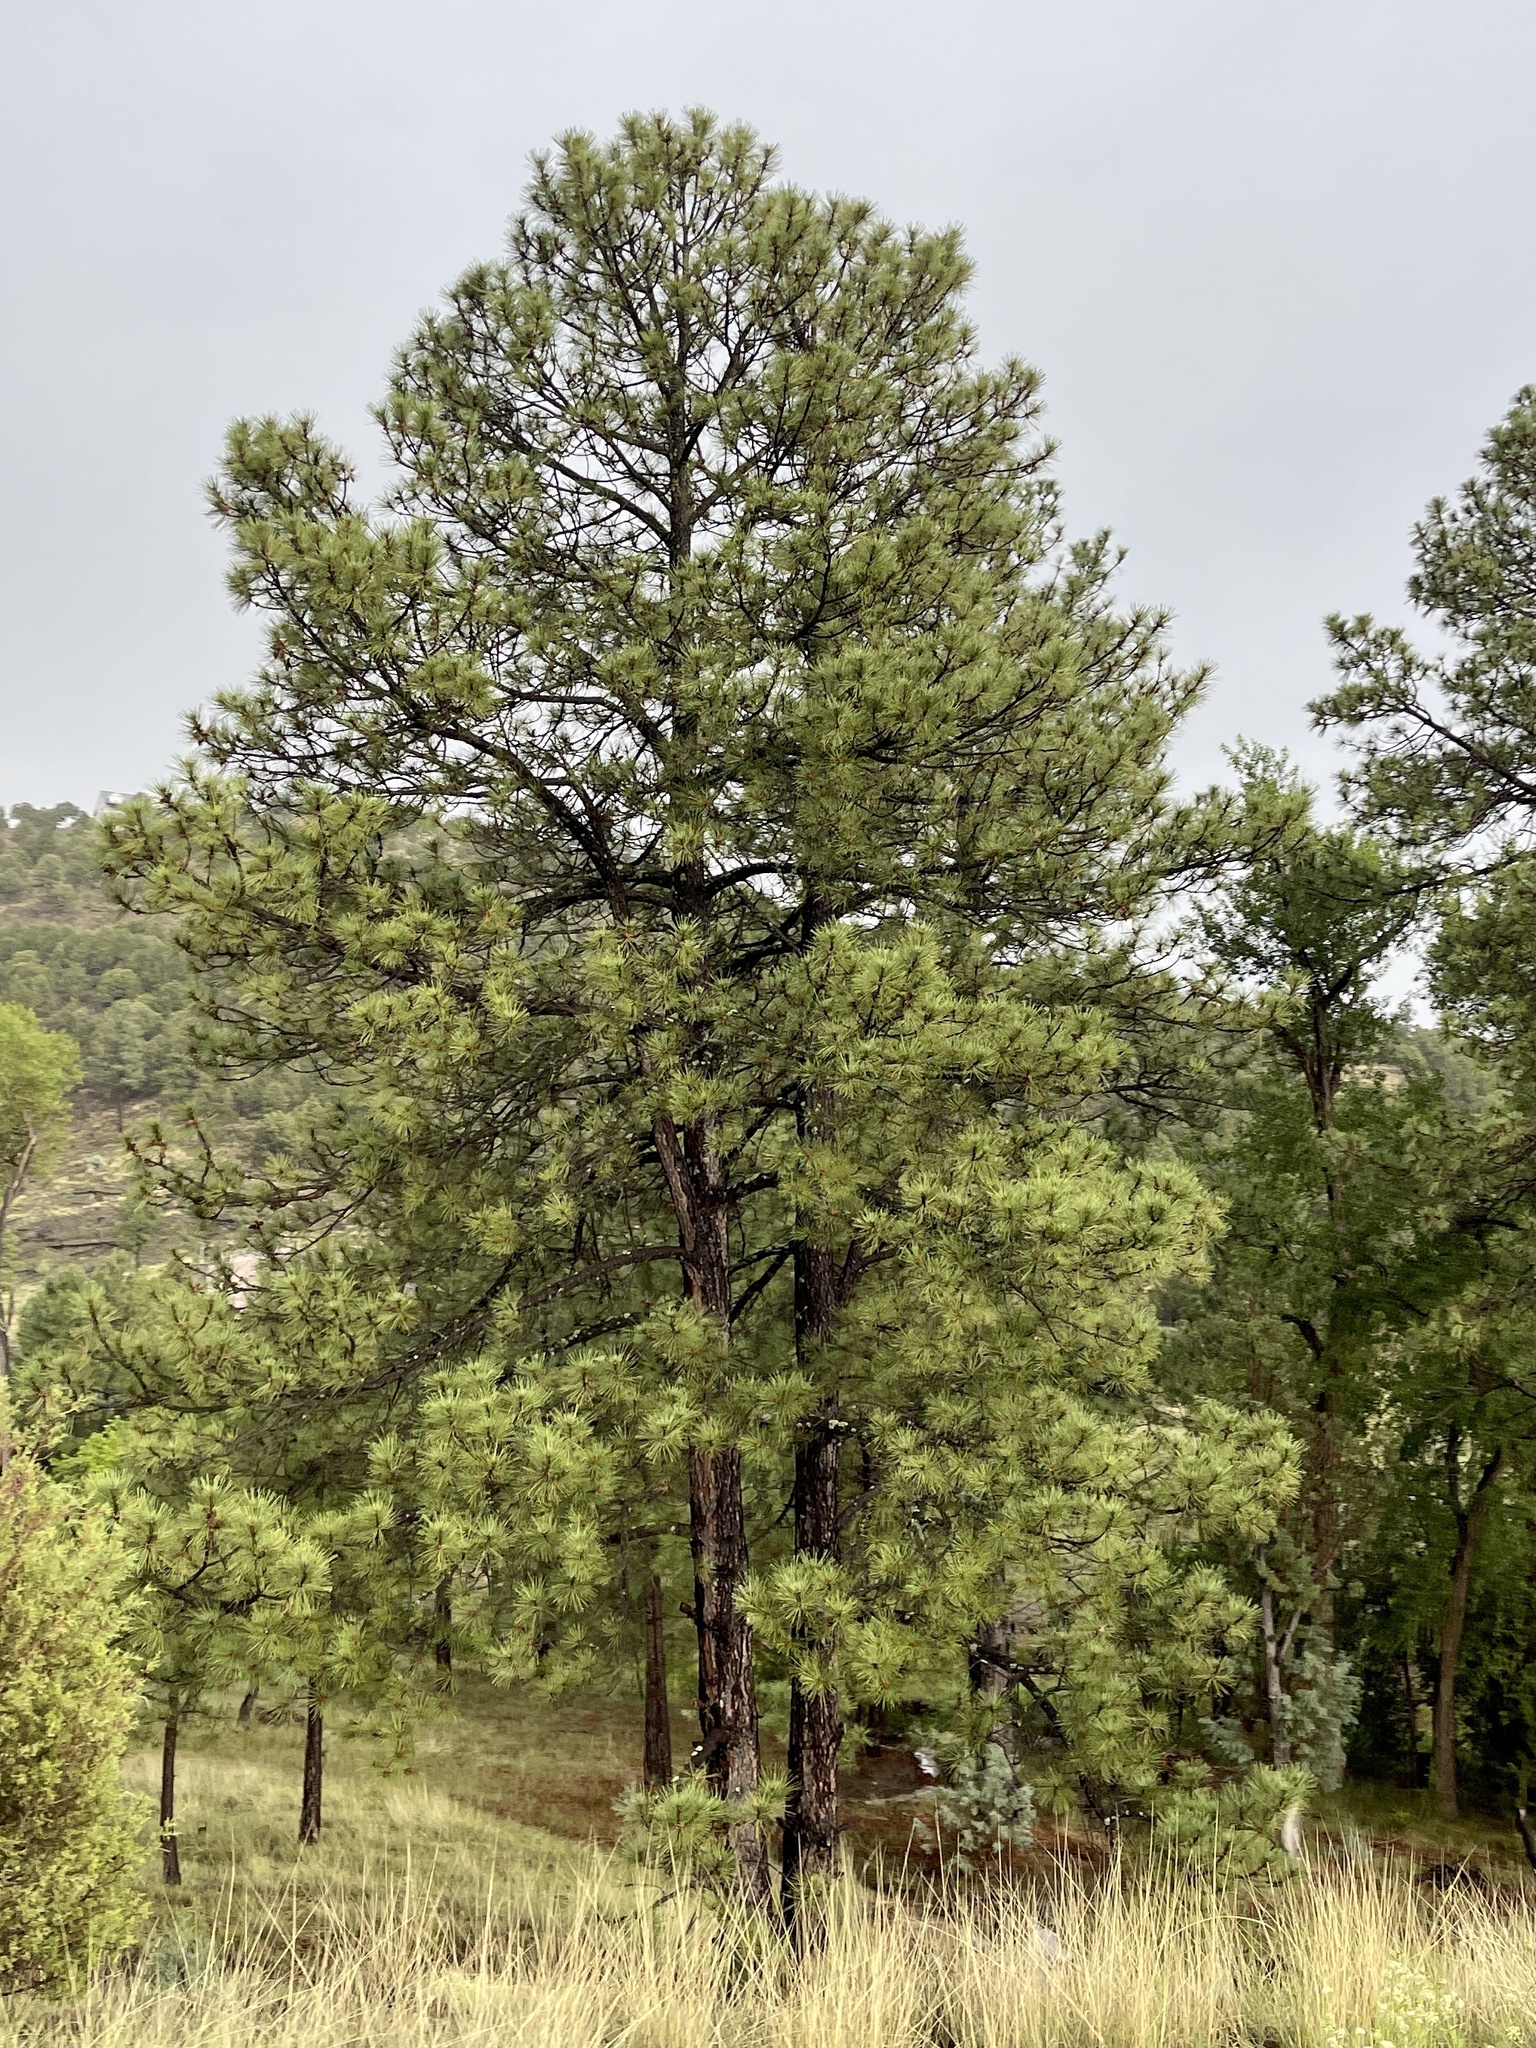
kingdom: Plantae
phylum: Tracheophyta
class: Pinopsida
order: Pinales
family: Pinaceae
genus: Pinus
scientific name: Pinus ponderosa
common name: Western yellow-pine
